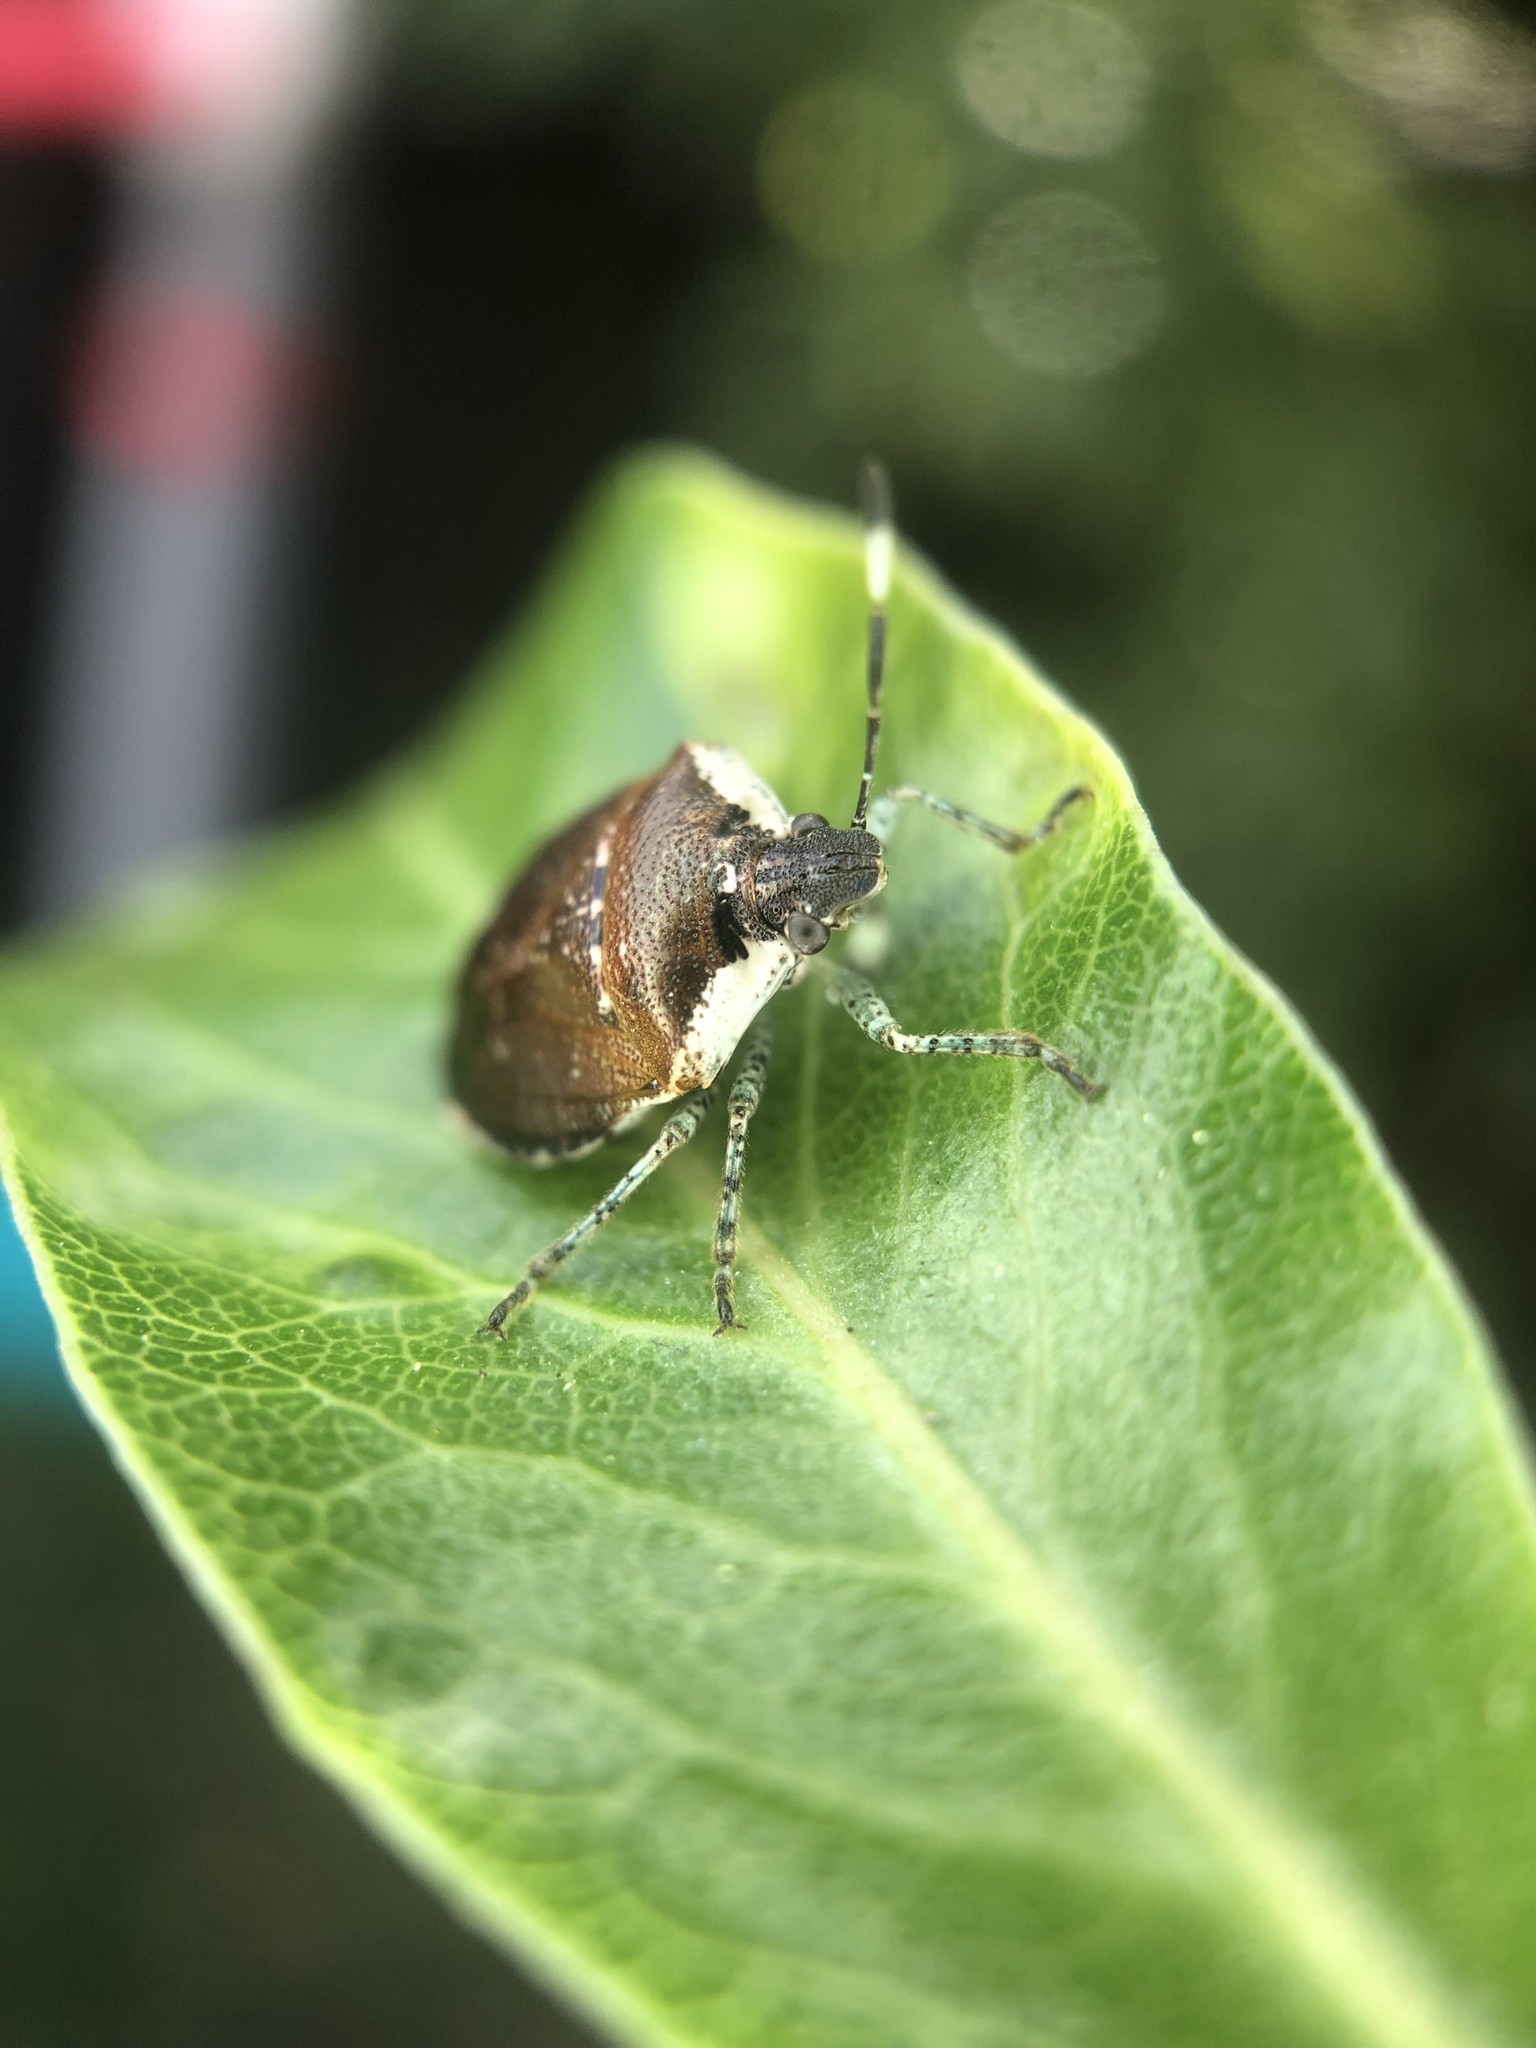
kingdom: Animalia
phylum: Arthropoda
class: Insecta
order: Hemiptera
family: Pentatomidae
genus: Monteithiella
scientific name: Monteithiella
